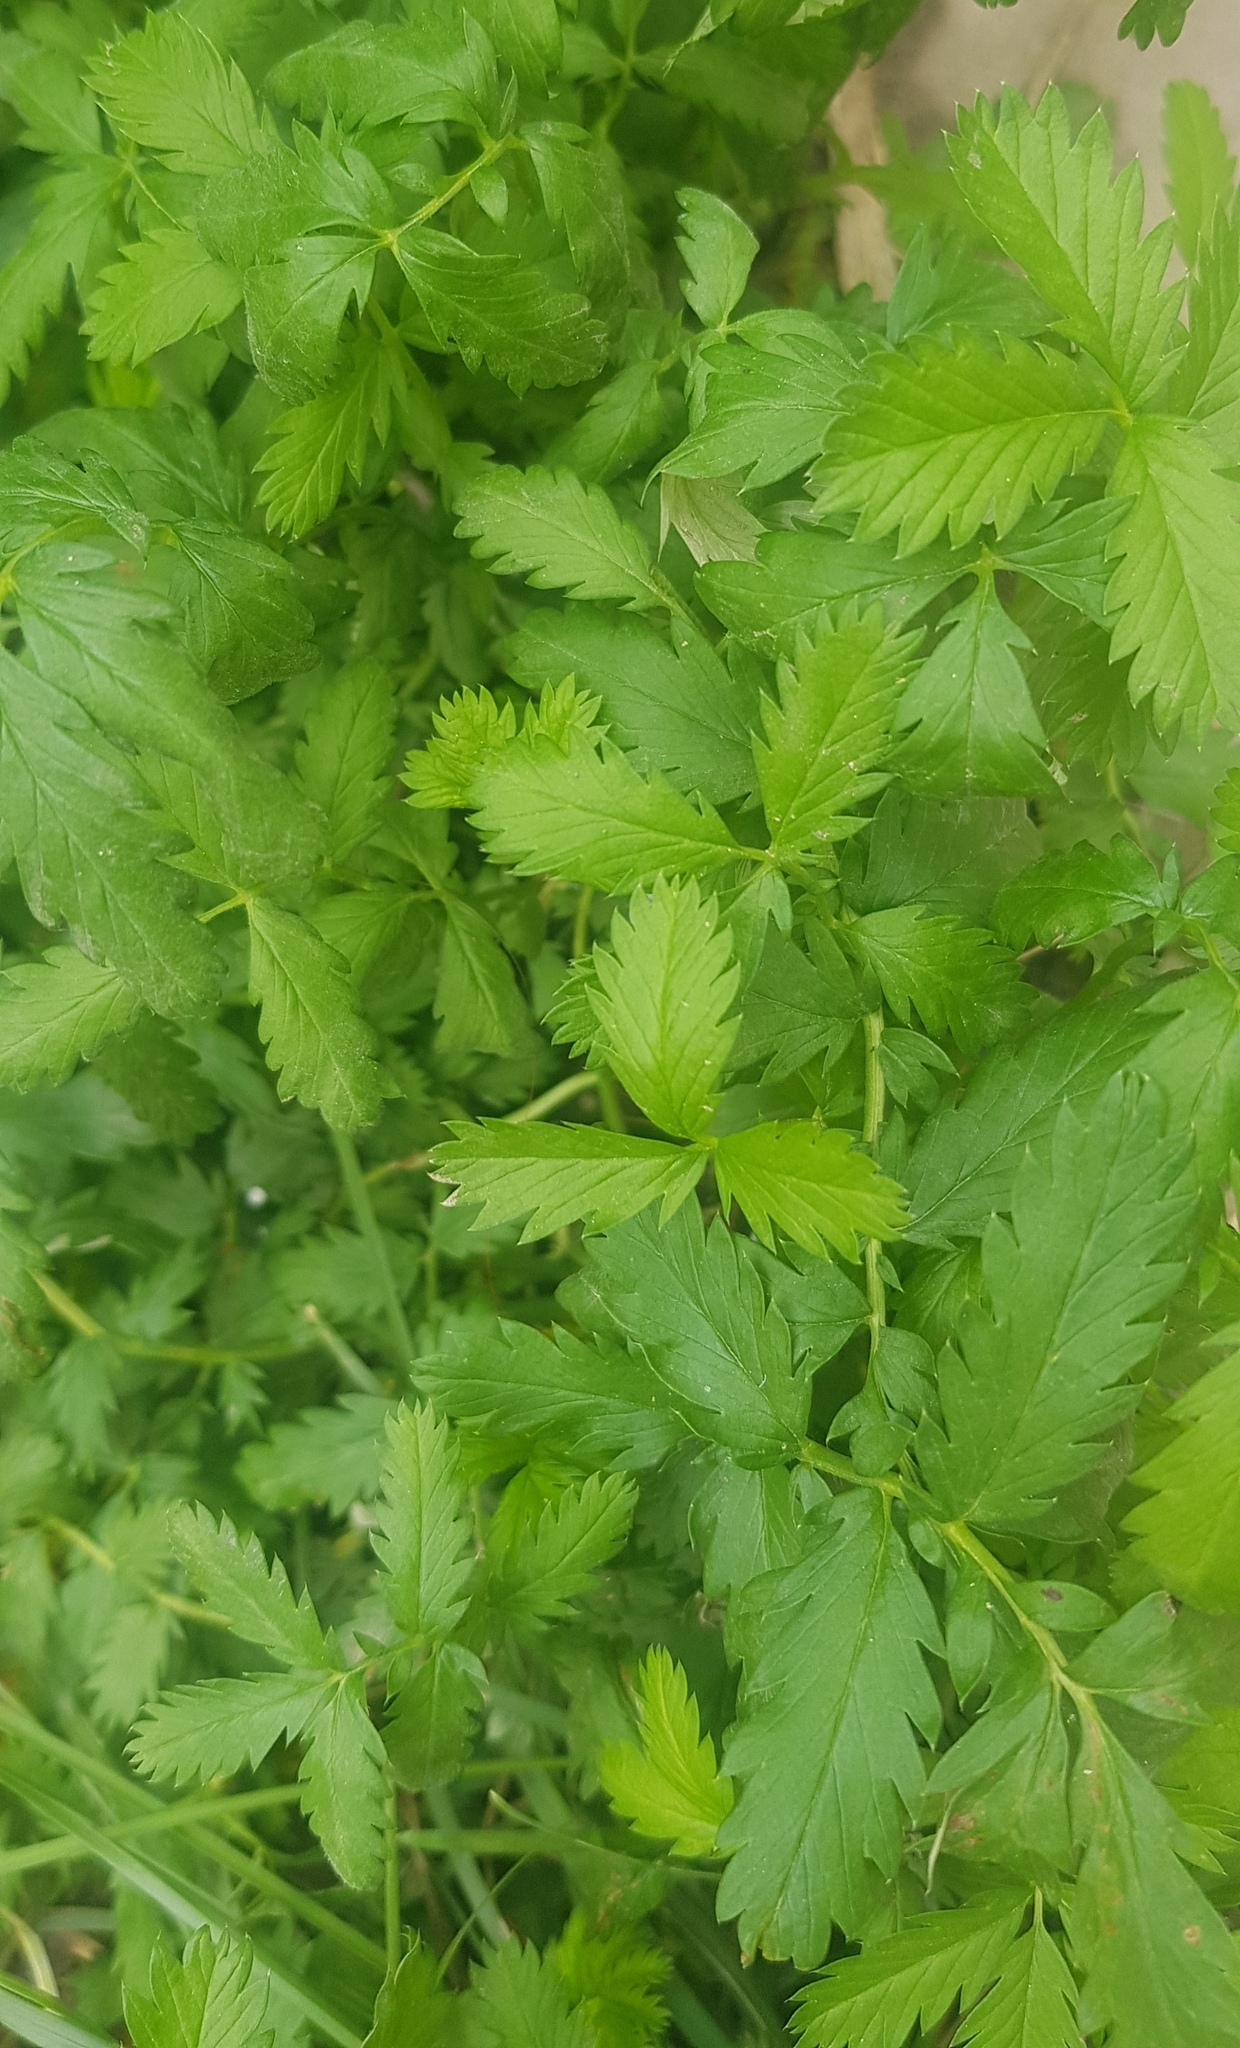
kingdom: Plantae
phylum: Tracheophyta
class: Magnoliopsida
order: Rosales
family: Rosaceae
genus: Potentilla
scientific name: Potentilla norvegica
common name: Ternate-leaved cinquefoil
